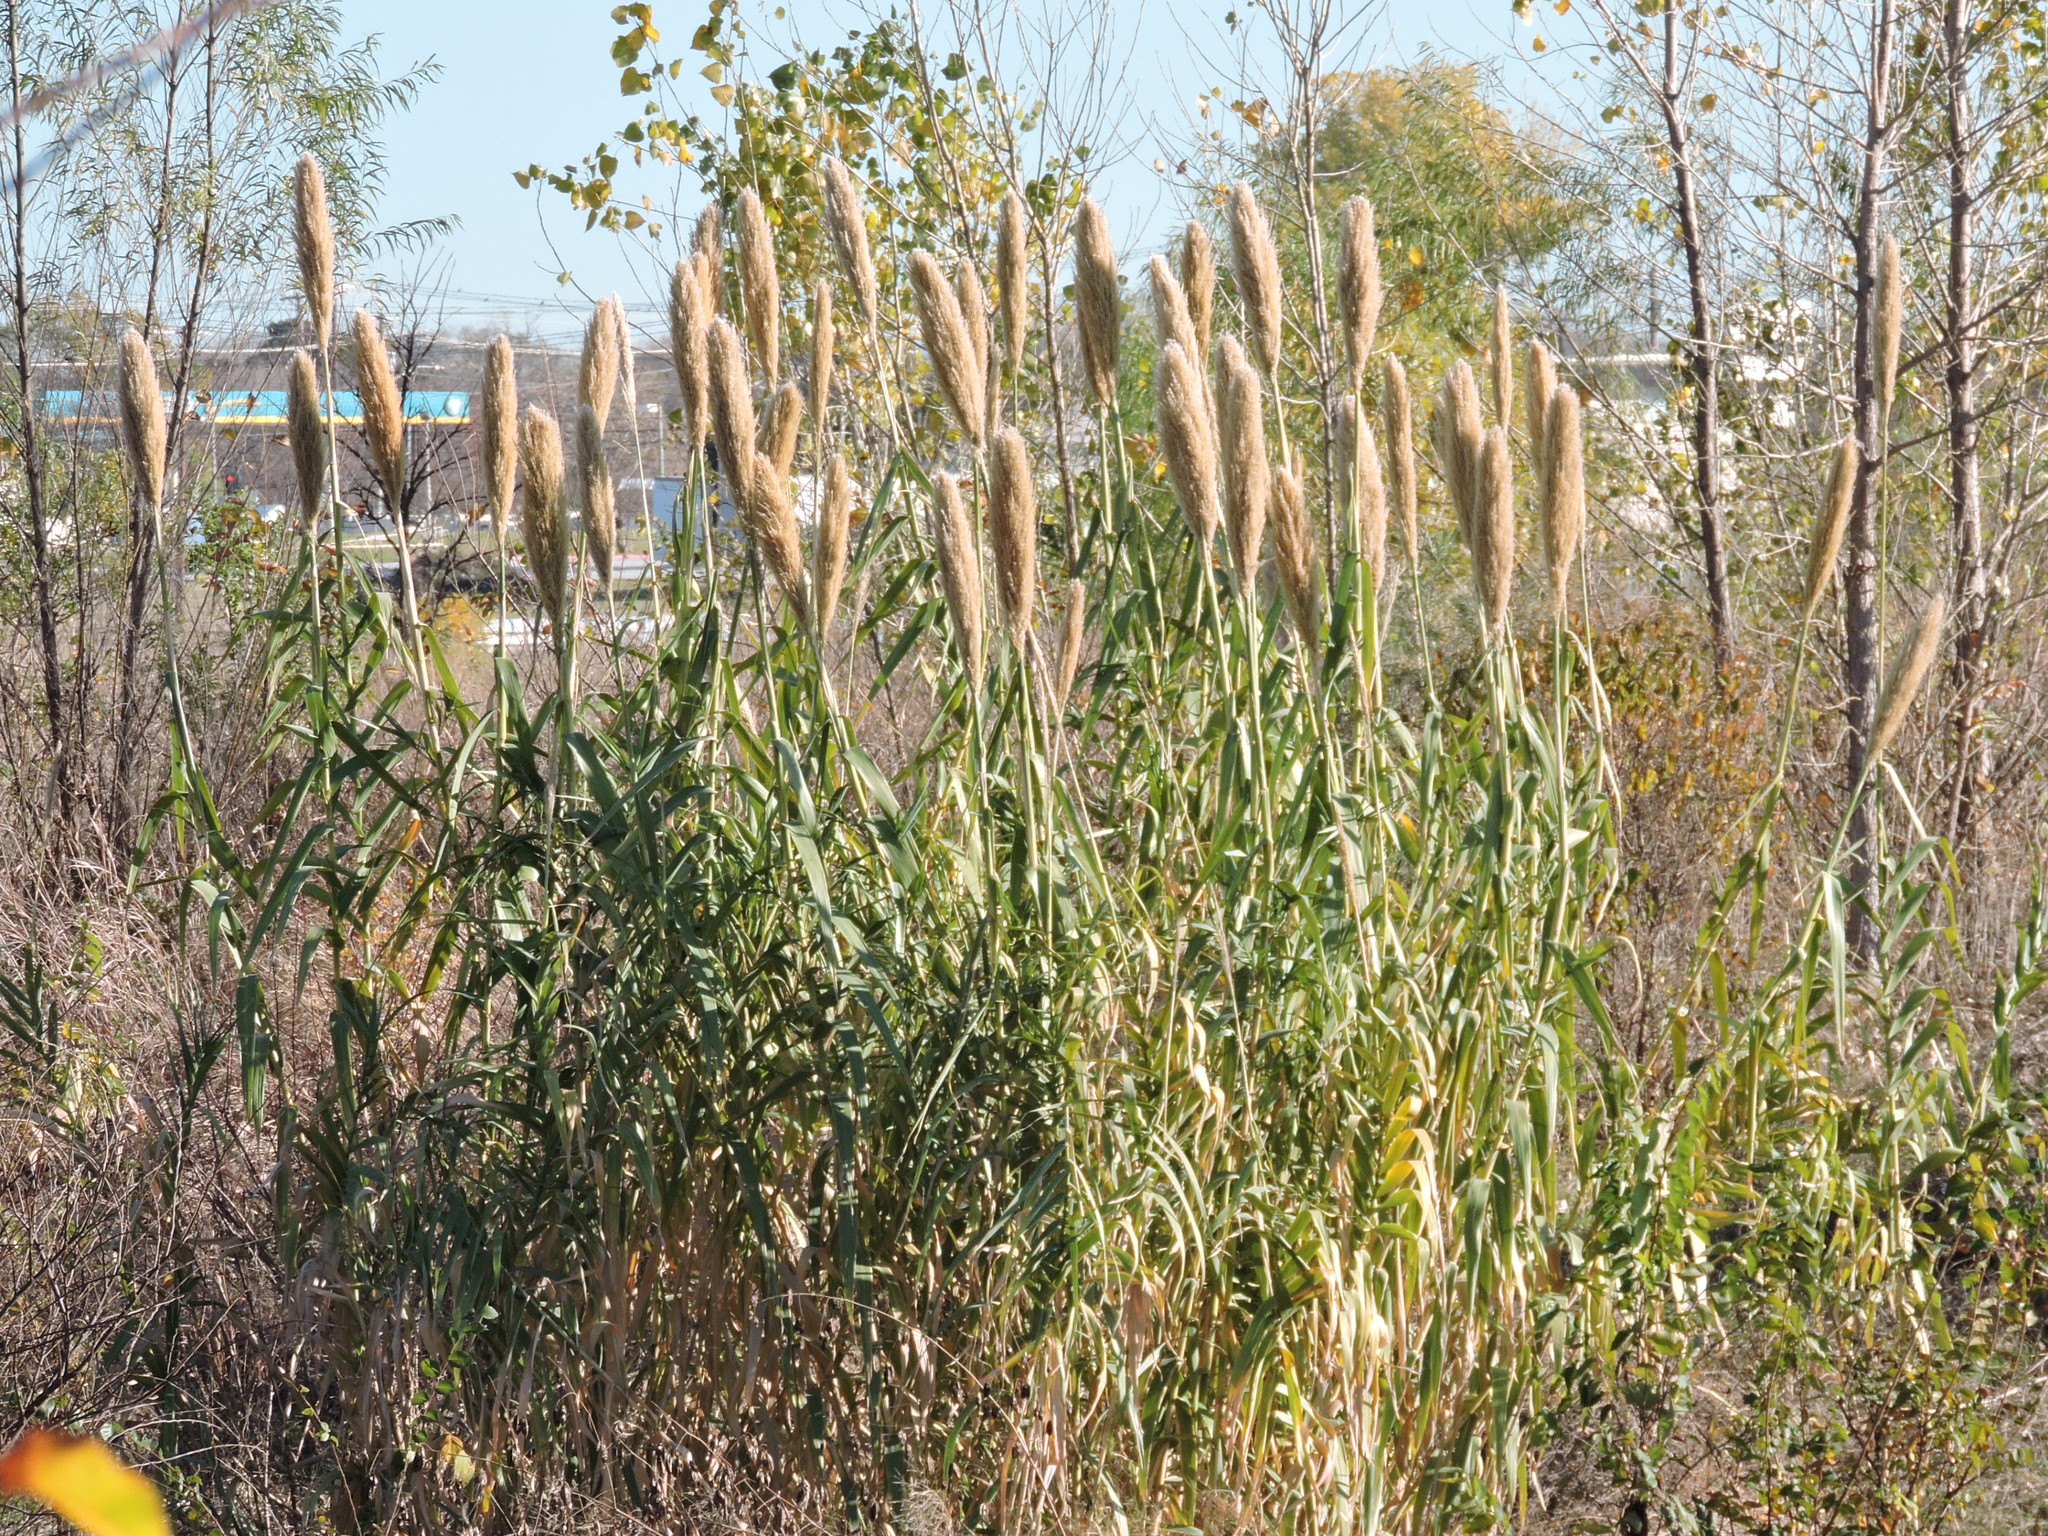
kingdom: Plantae
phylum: Tracheophyta
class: Liliopsida
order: Poales
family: Poaceae
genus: Arundo
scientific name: Arundo donax
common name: Giant reed
